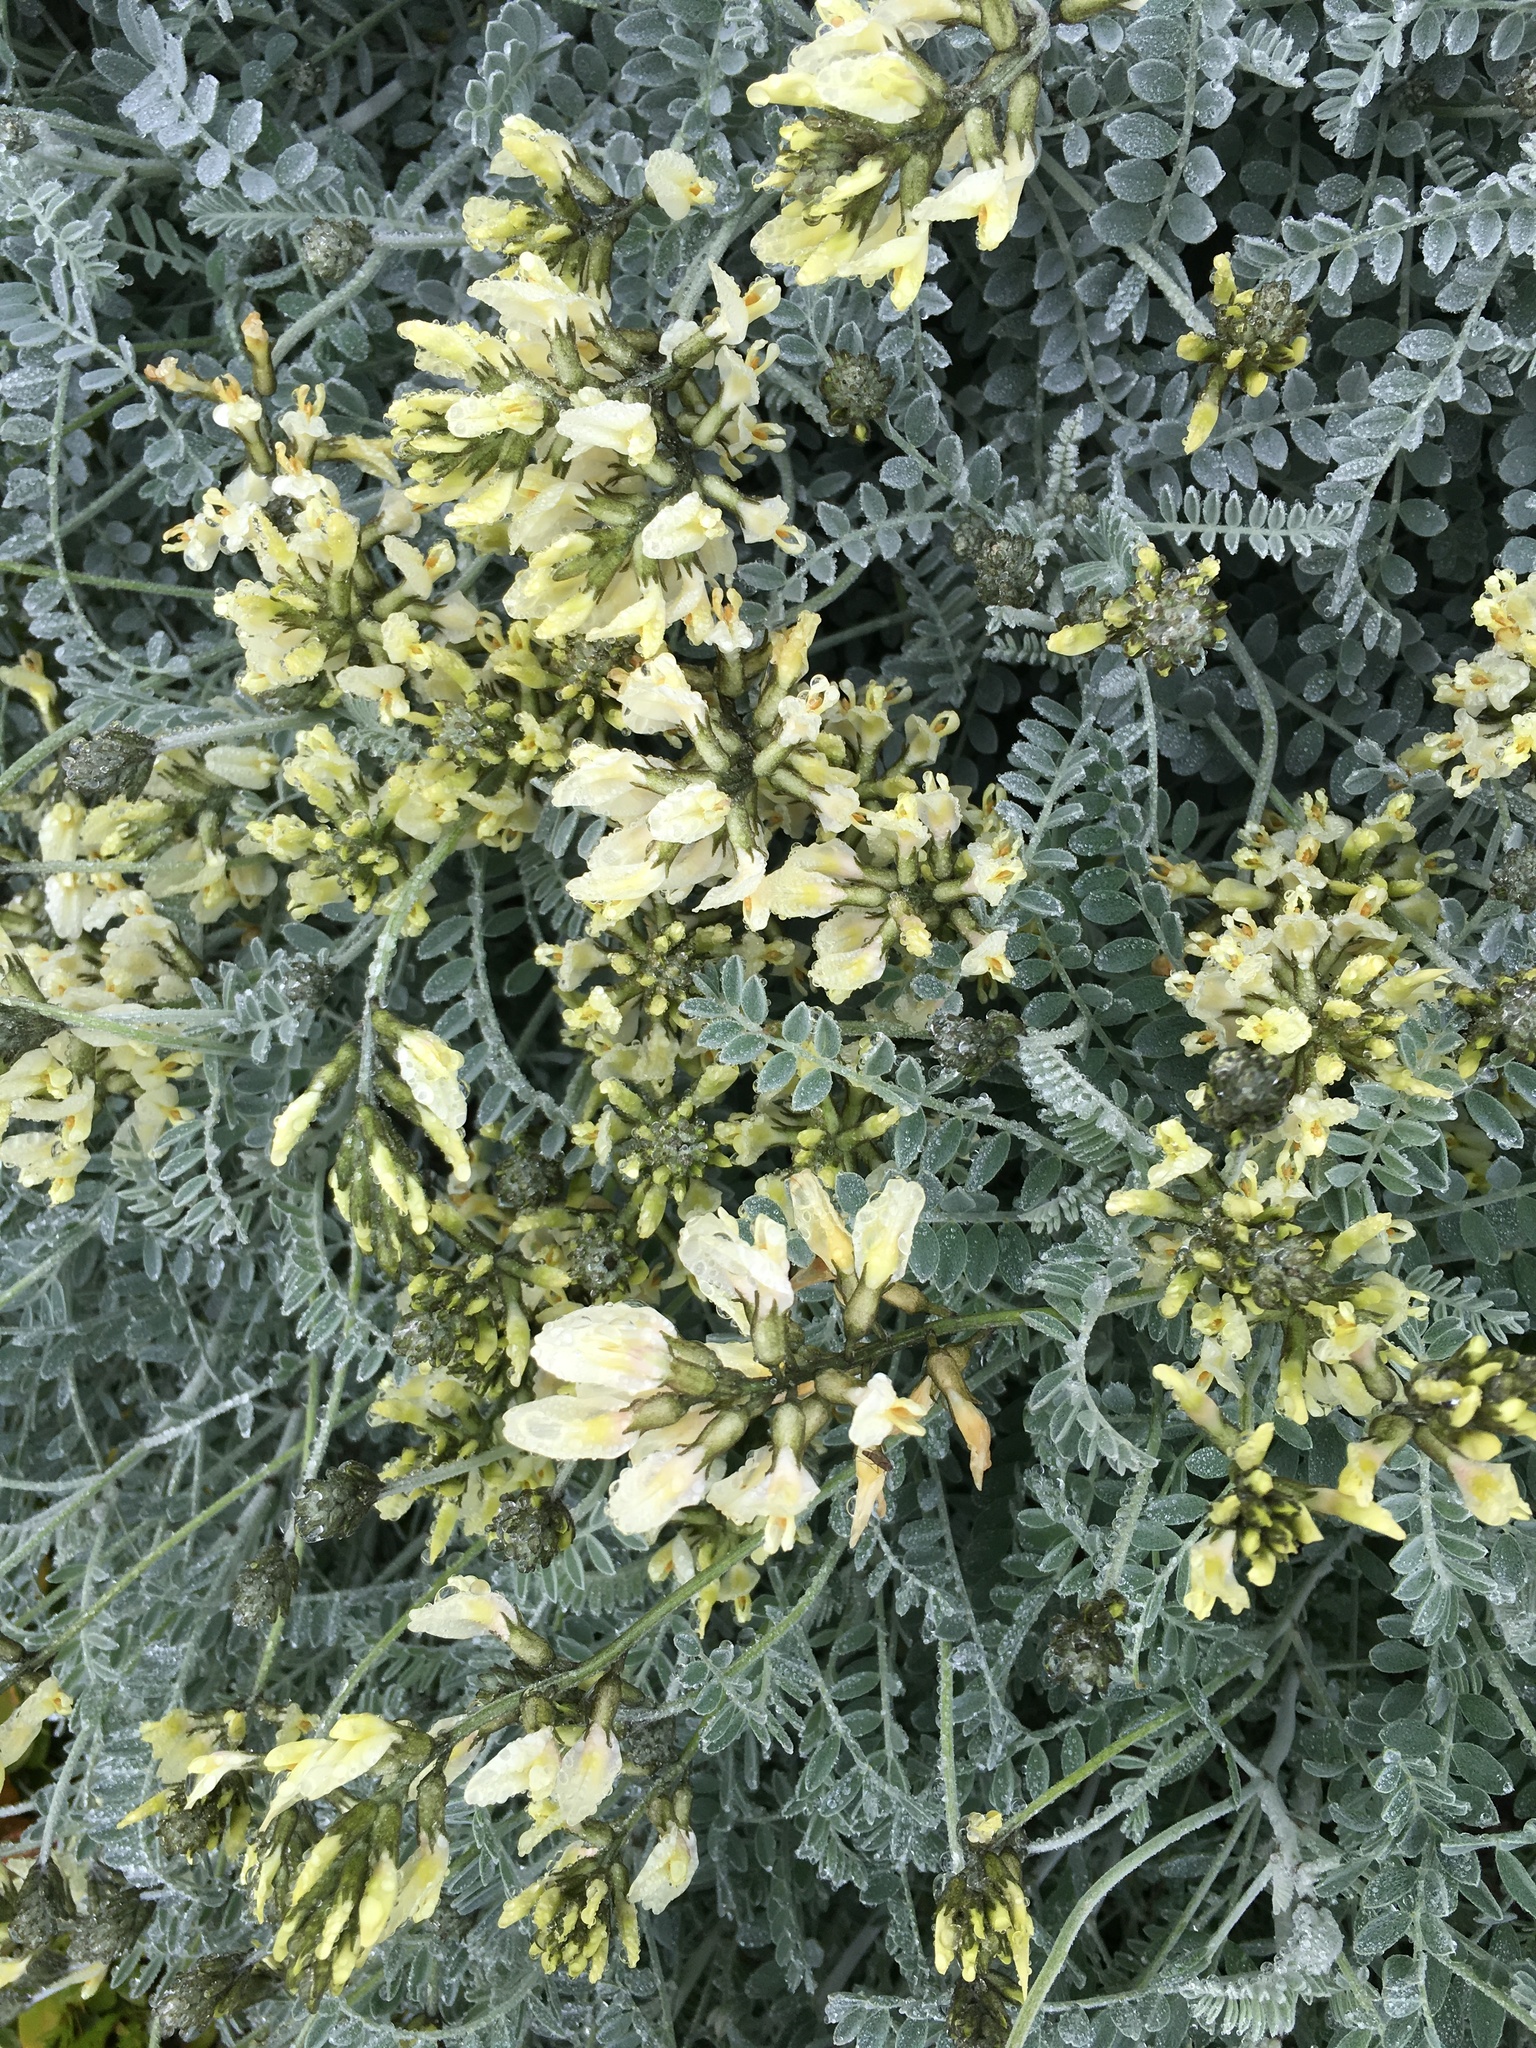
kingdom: Plantae
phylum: Tracheophyta
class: Magnoliopsida
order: Fabales
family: Fabaceae
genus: Astragalus
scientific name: Astragalus traskiae
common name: Trask's milk-vetch
